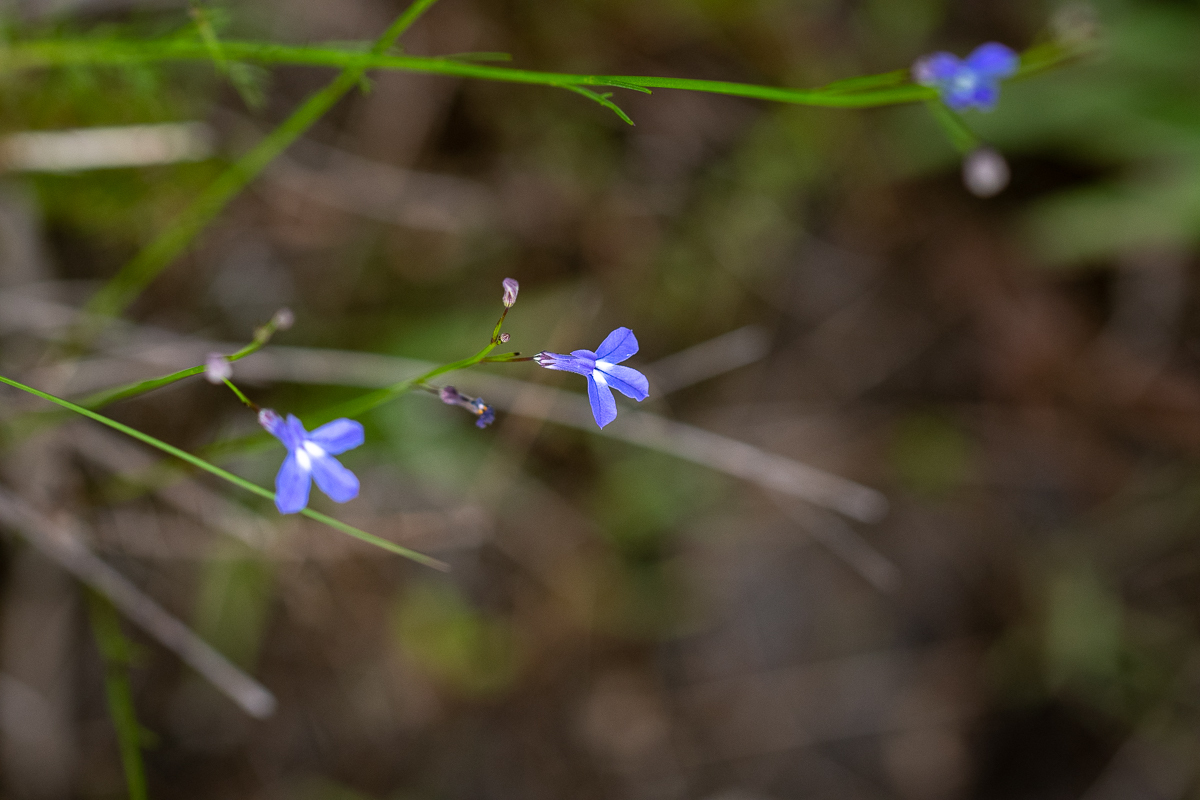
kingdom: Plantae
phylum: Tracheophyta
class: Magnoliopsida
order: Asterales
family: Campanulaceae
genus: Lobelia
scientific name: Lobelia setacea
